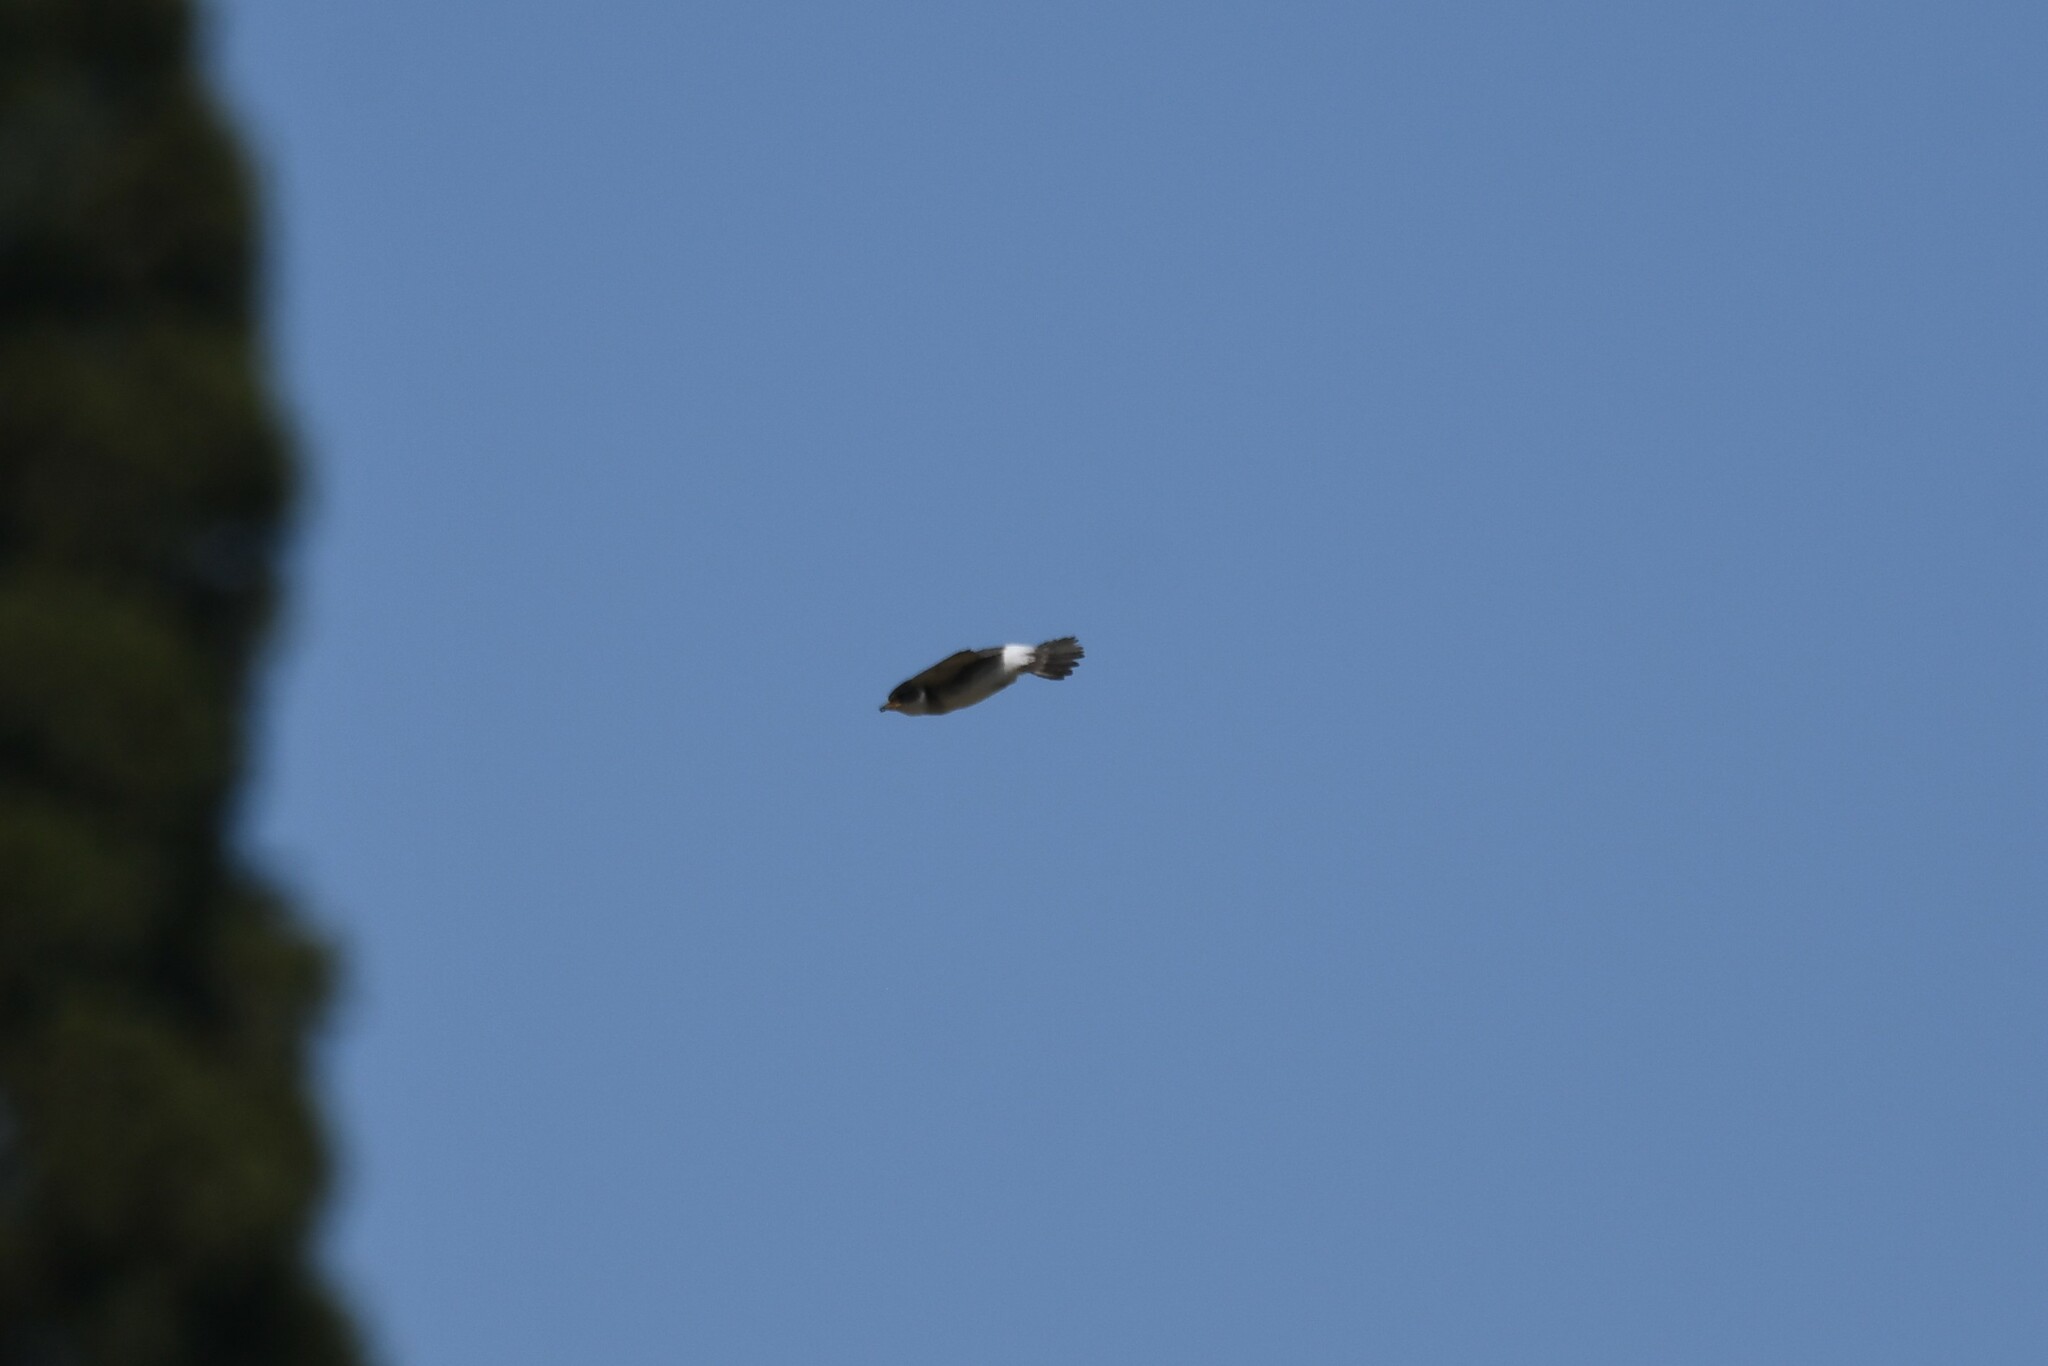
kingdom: Animalia
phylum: Chordata
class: Aves
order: Passeriformes
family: Hirundinidae
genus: Tachycineta
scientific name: Tachycineta leucorrhoa
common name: White-rumped swallow
